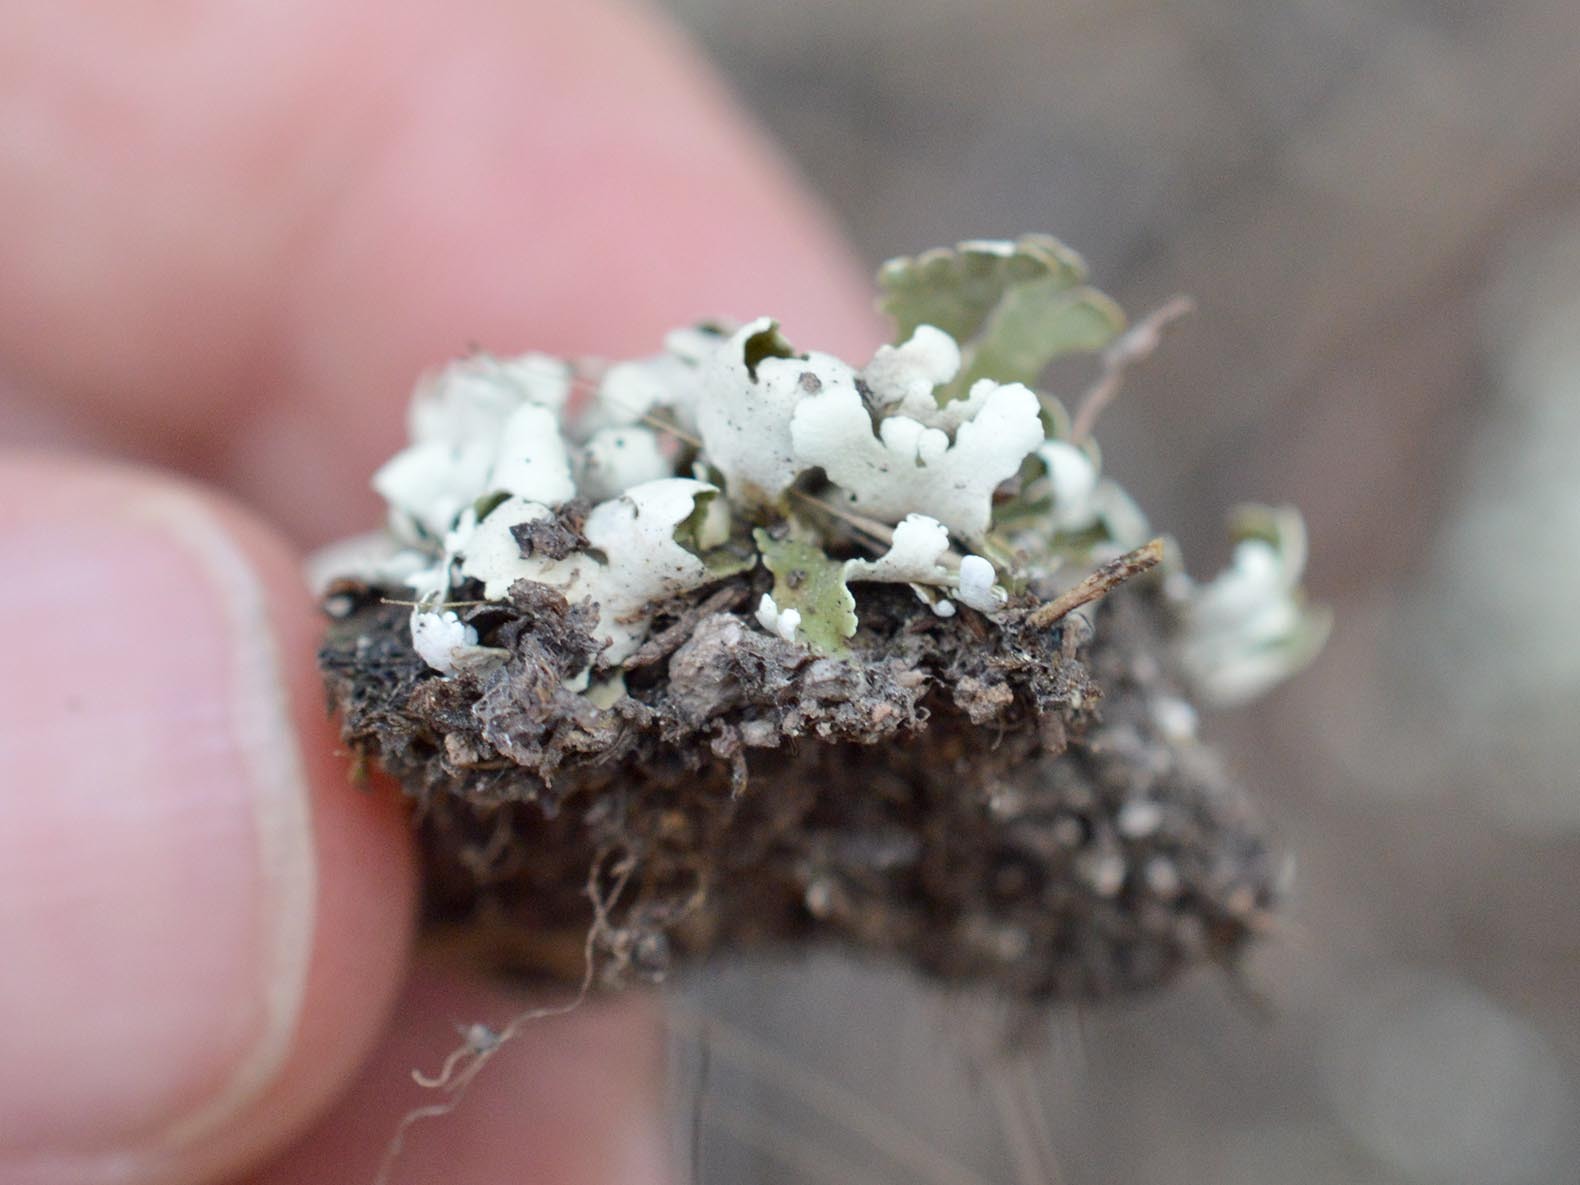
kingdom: Fungi
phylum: Ascomycota
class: Lecanoromycetes
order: Lecanorales
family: Cladoniaceae
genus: Cladonia
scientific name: Cladonia foliacea
